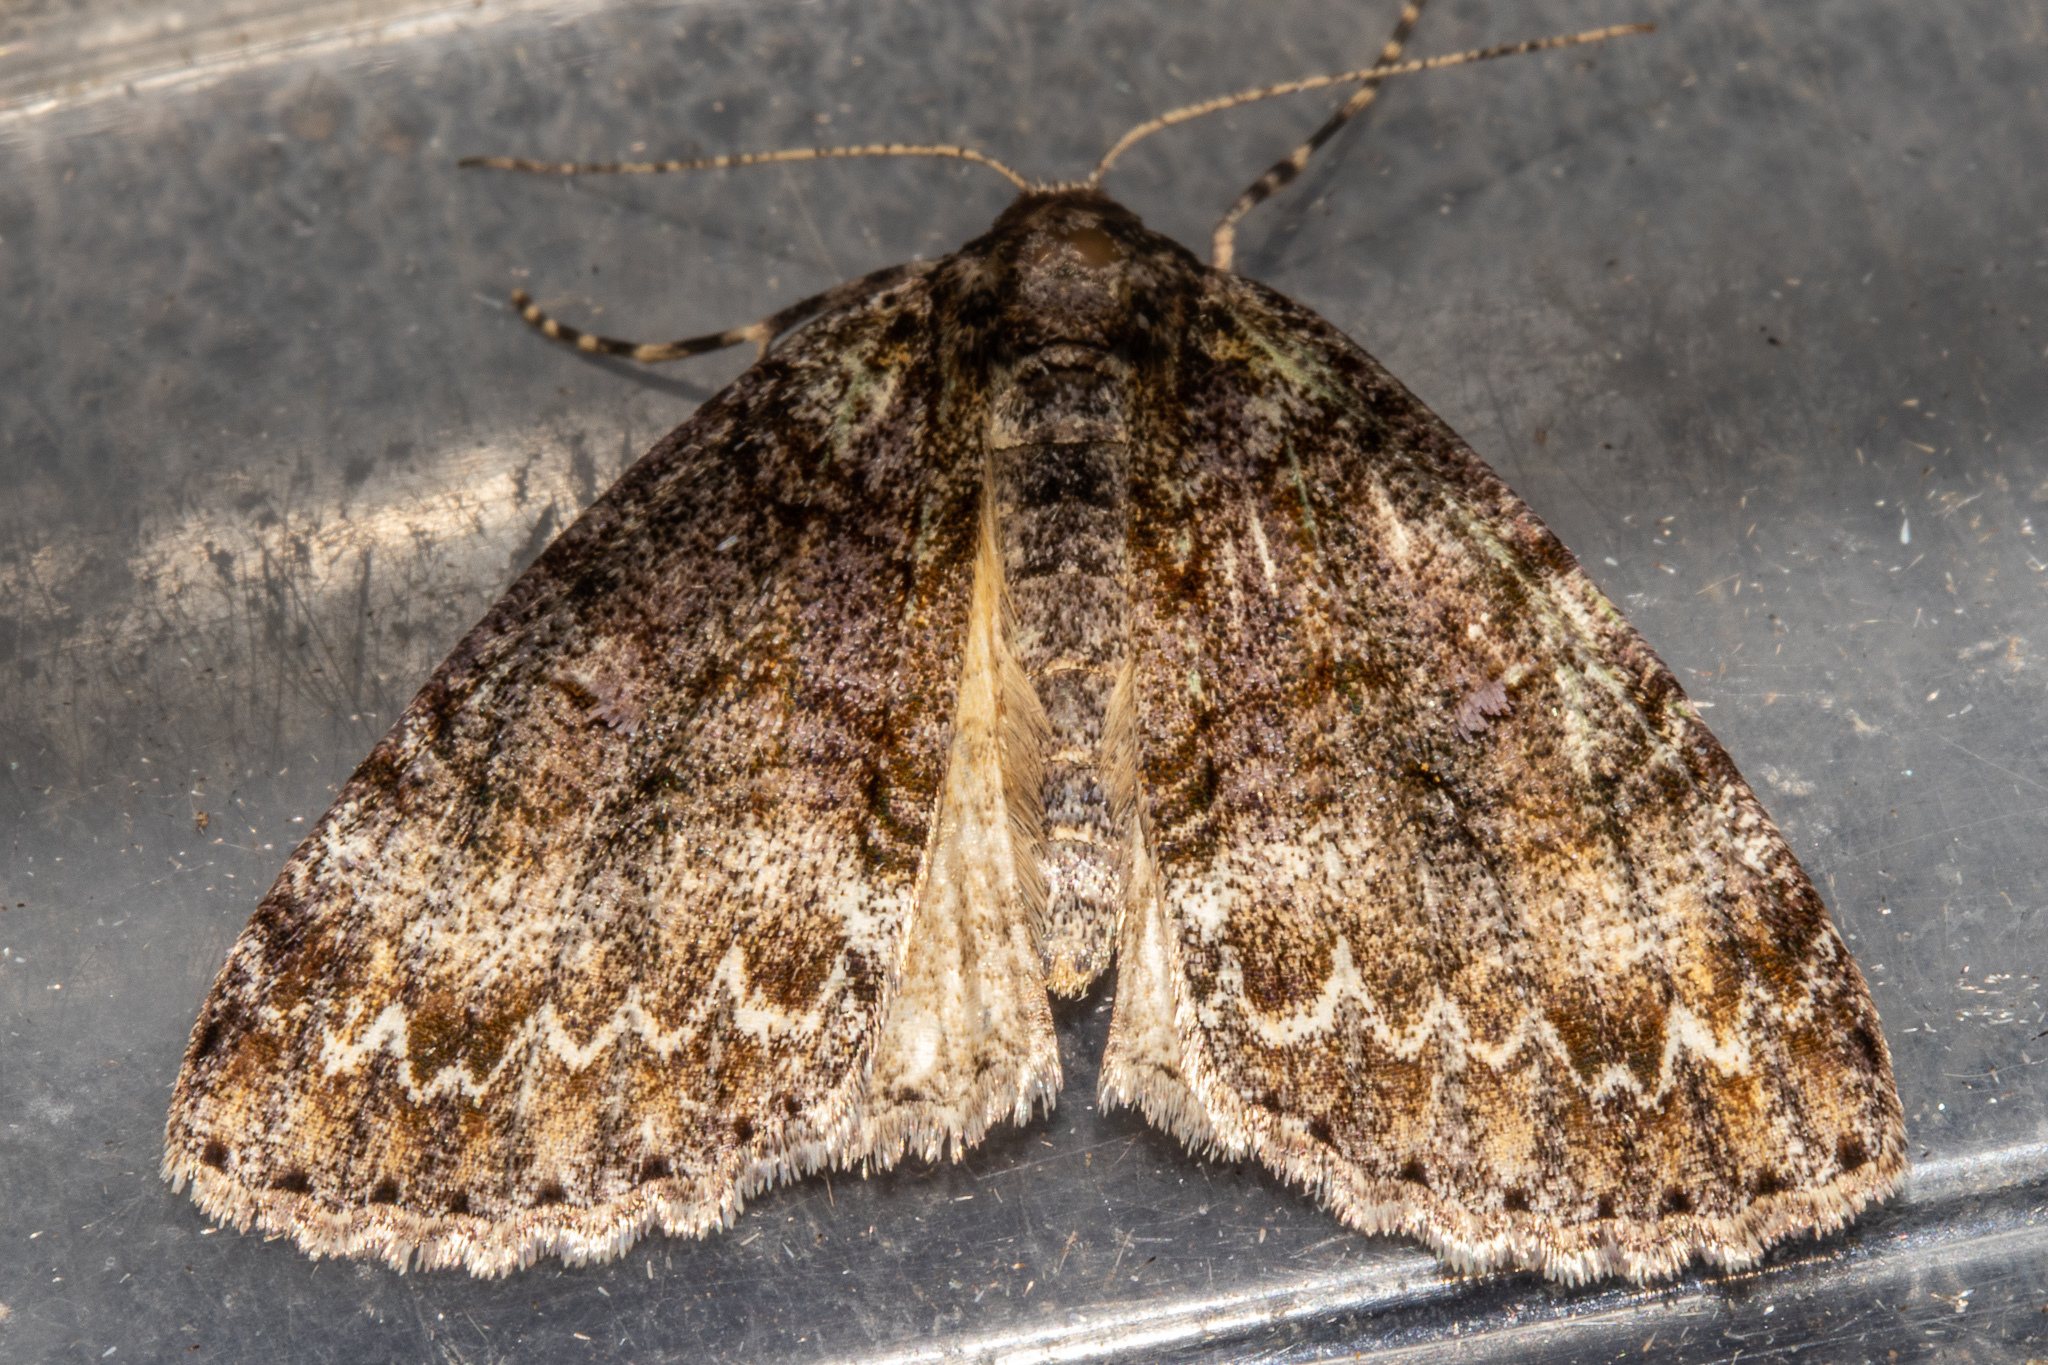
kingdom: Animalia
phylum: Arthropoda
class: Insecta
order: Lepidoptera
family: Geometridae
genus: Pseudocoremia
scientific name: Pseudocoremia suavis
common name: Common forest looper
